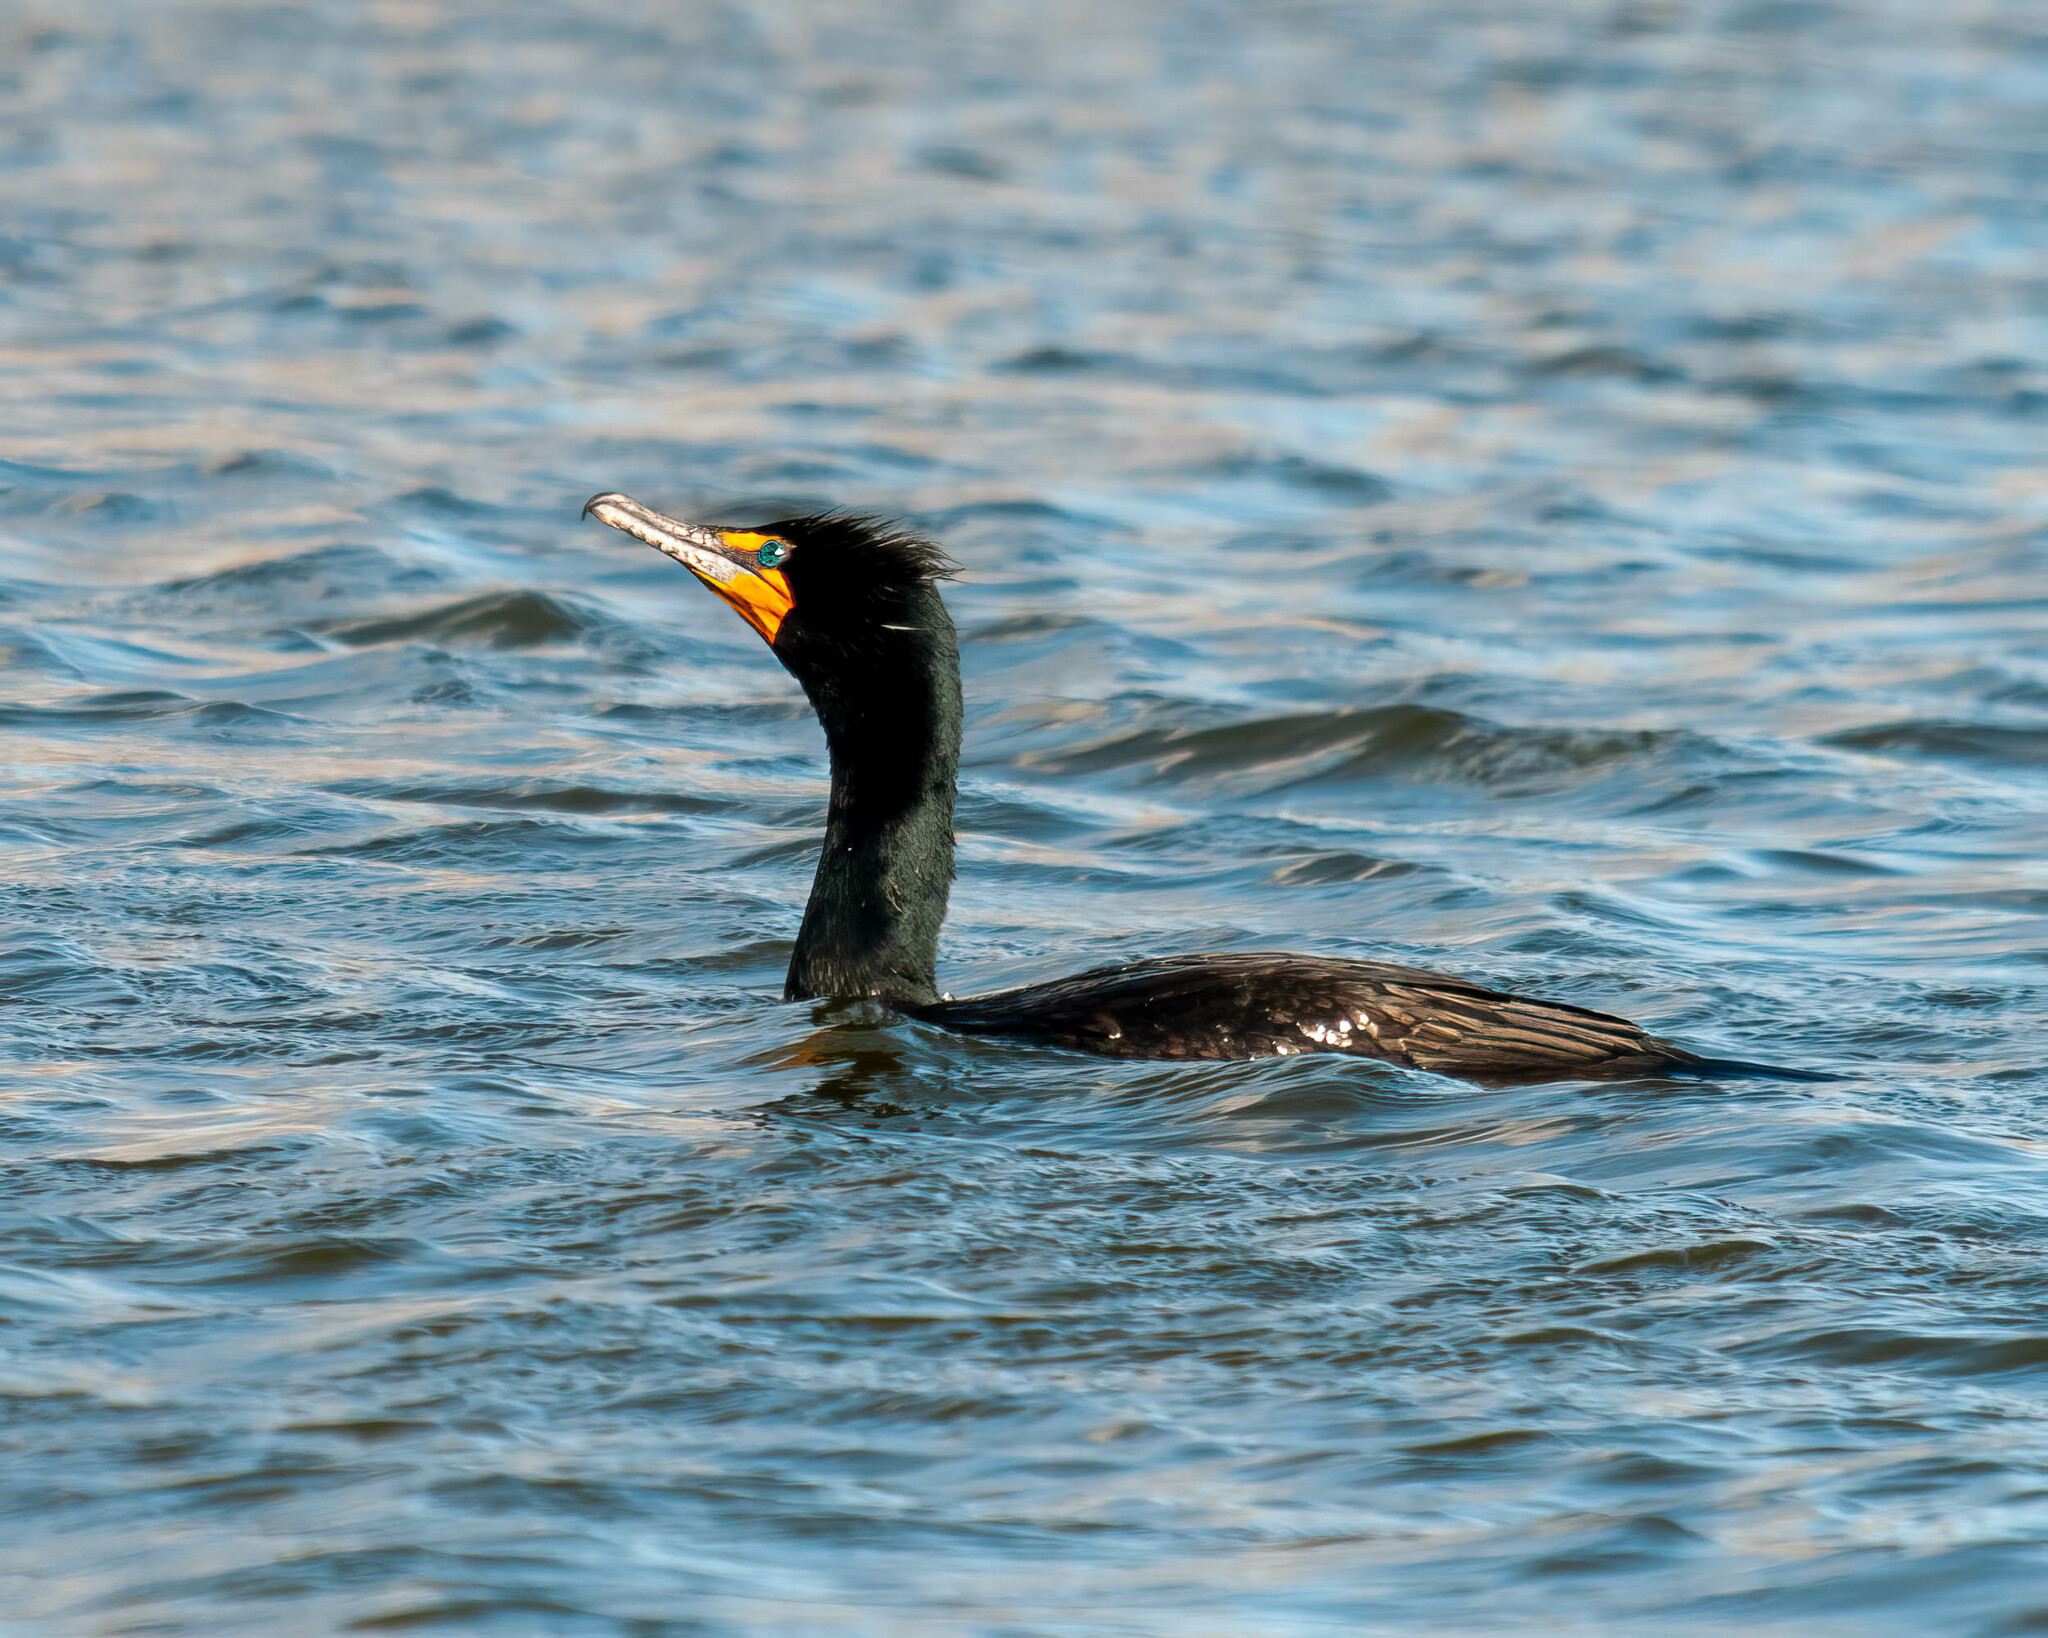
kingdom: Animalia
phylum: Chordata
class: Aves
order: Suliformes
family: Phalacrocoracidae
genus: Phalacrocorax
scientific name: Phalacrocorax auritus
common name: Double-crested cormorant
